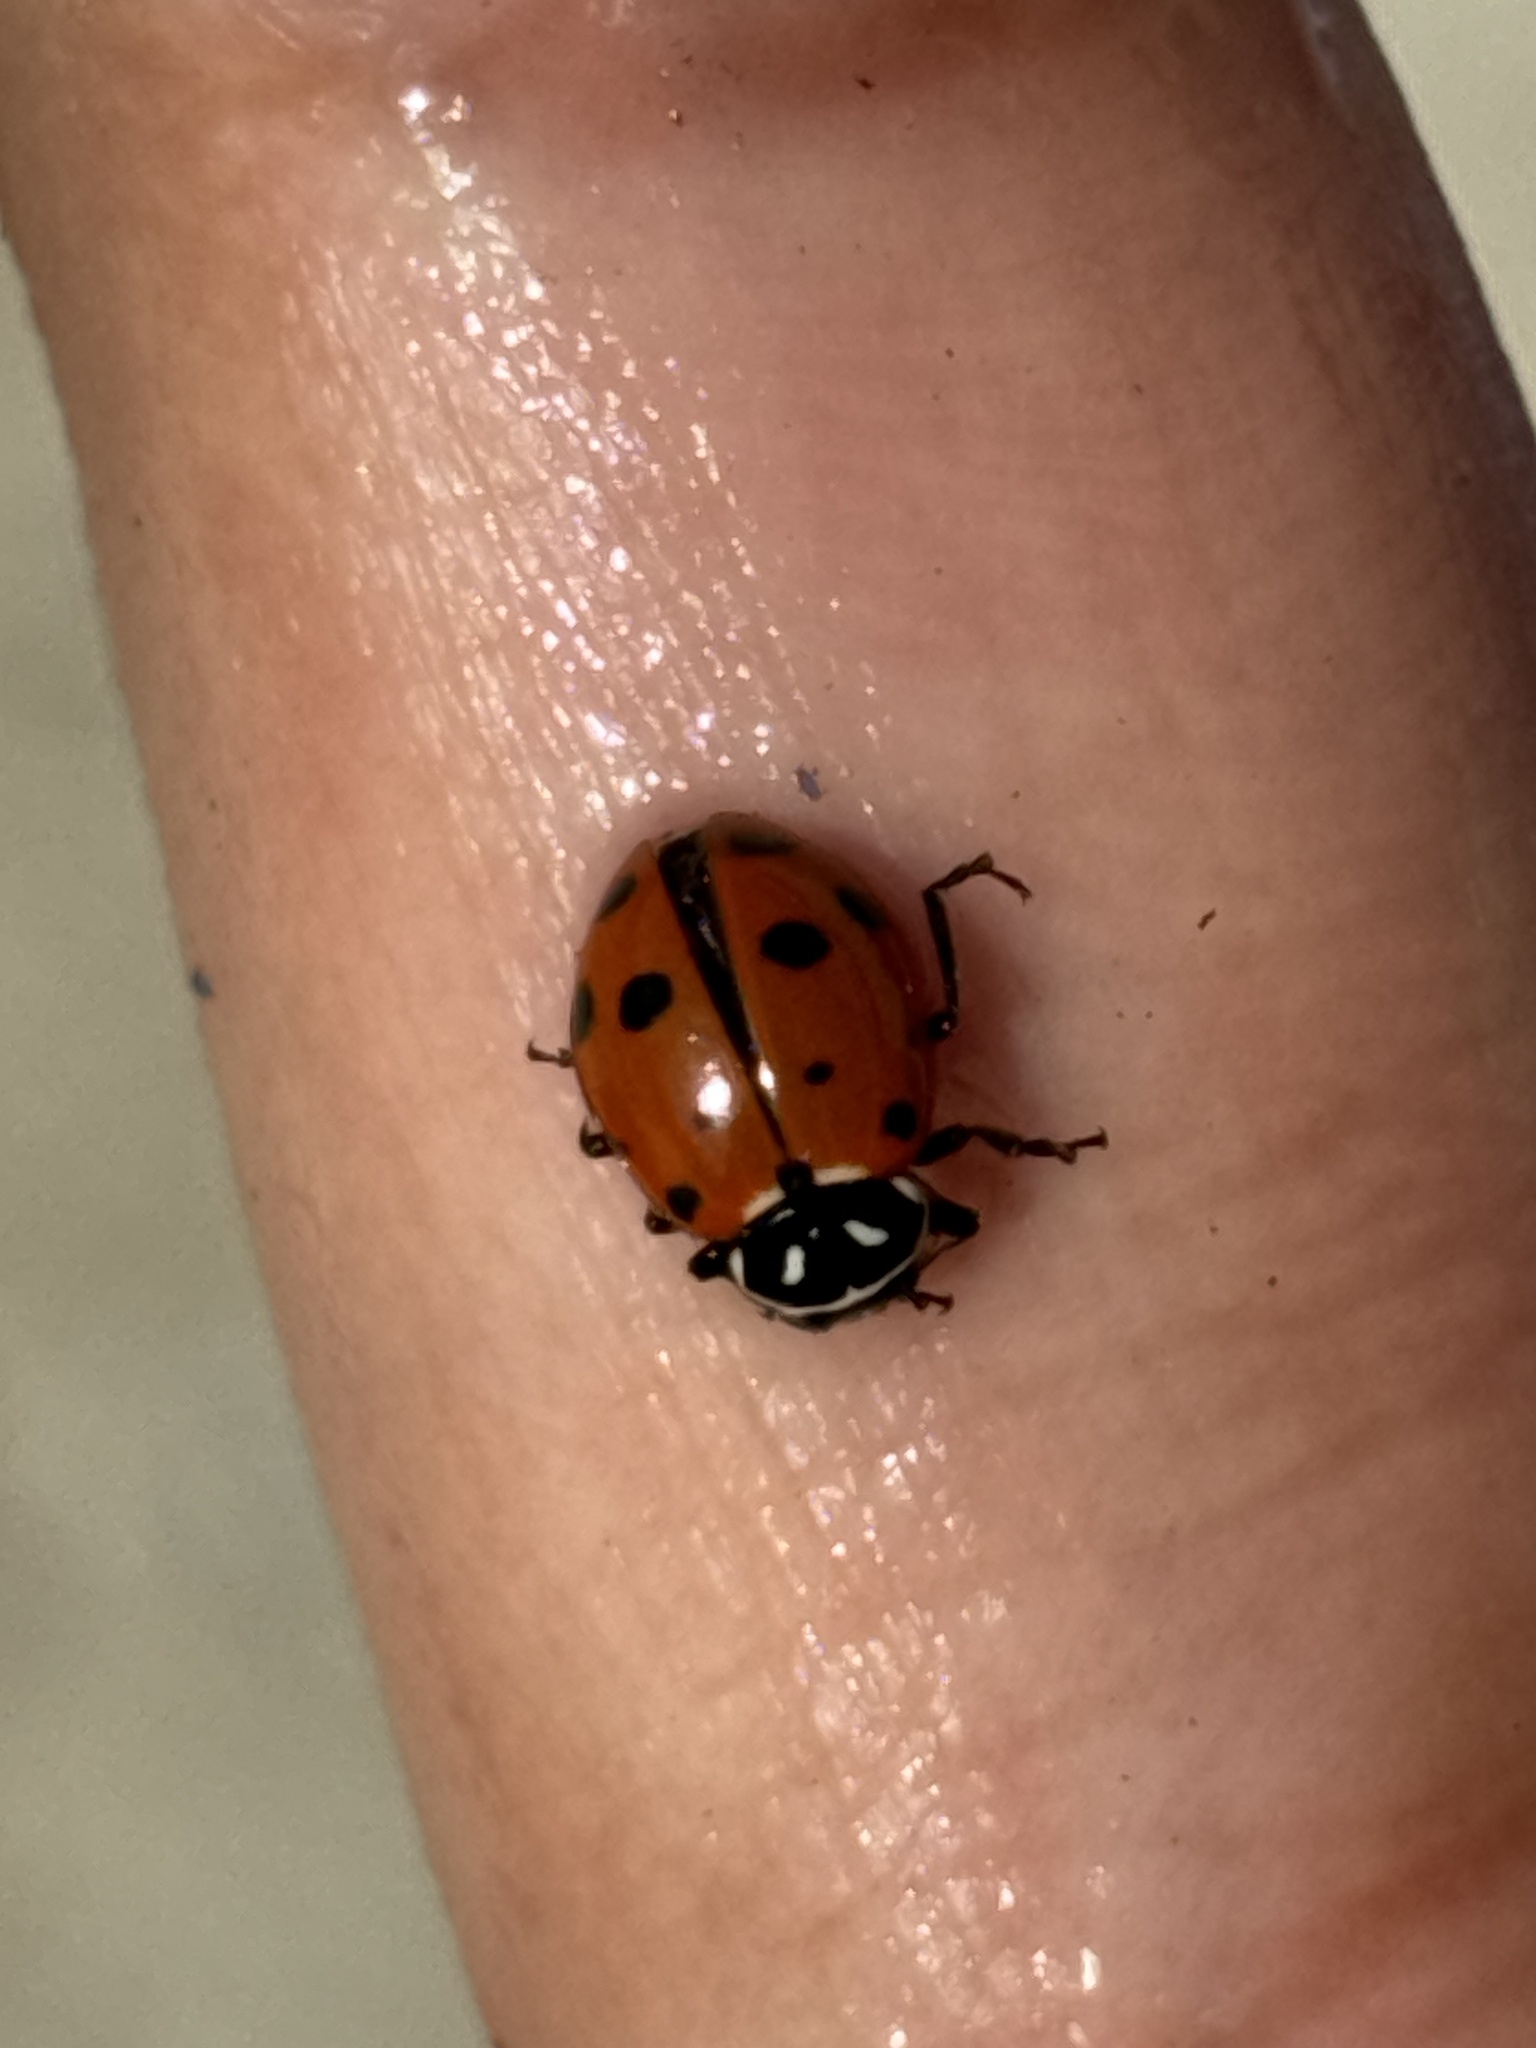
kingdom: Animalia
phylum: Arthropoda
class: Insecta
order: Coleoptera
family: Coccinellidae
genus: Hippodamia
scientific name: Hippodamia convergens
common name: Convergent lady beetle
